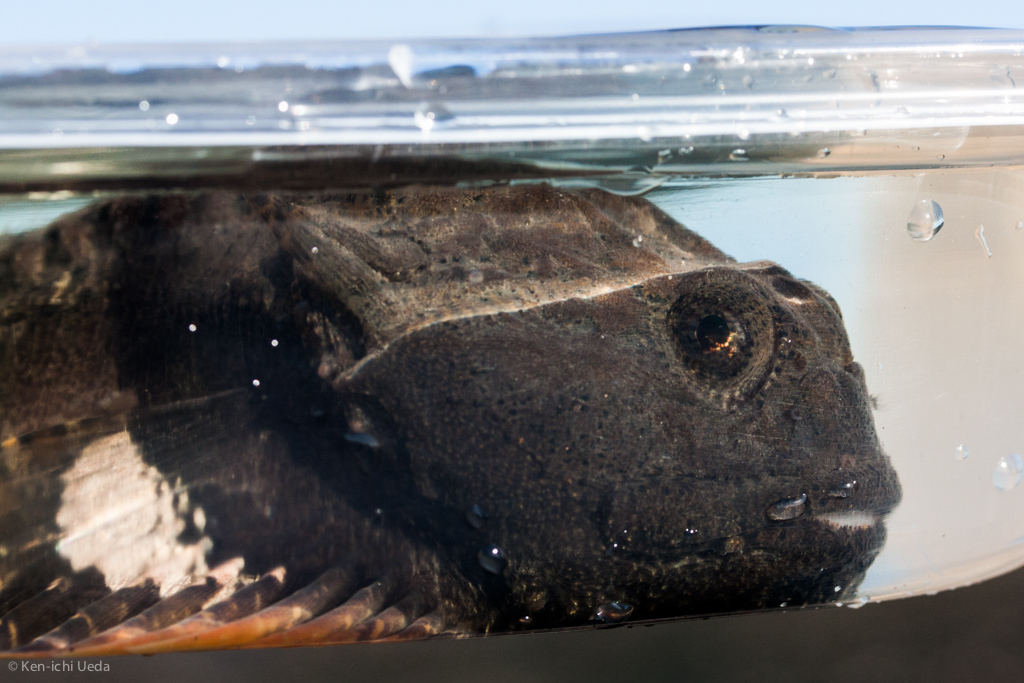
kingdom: Animalia
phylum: Chordata
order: Scorpaeniformes
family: Cottidae
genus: Enophrys
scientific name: Enophrys bison
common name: Buffalo sculpin
